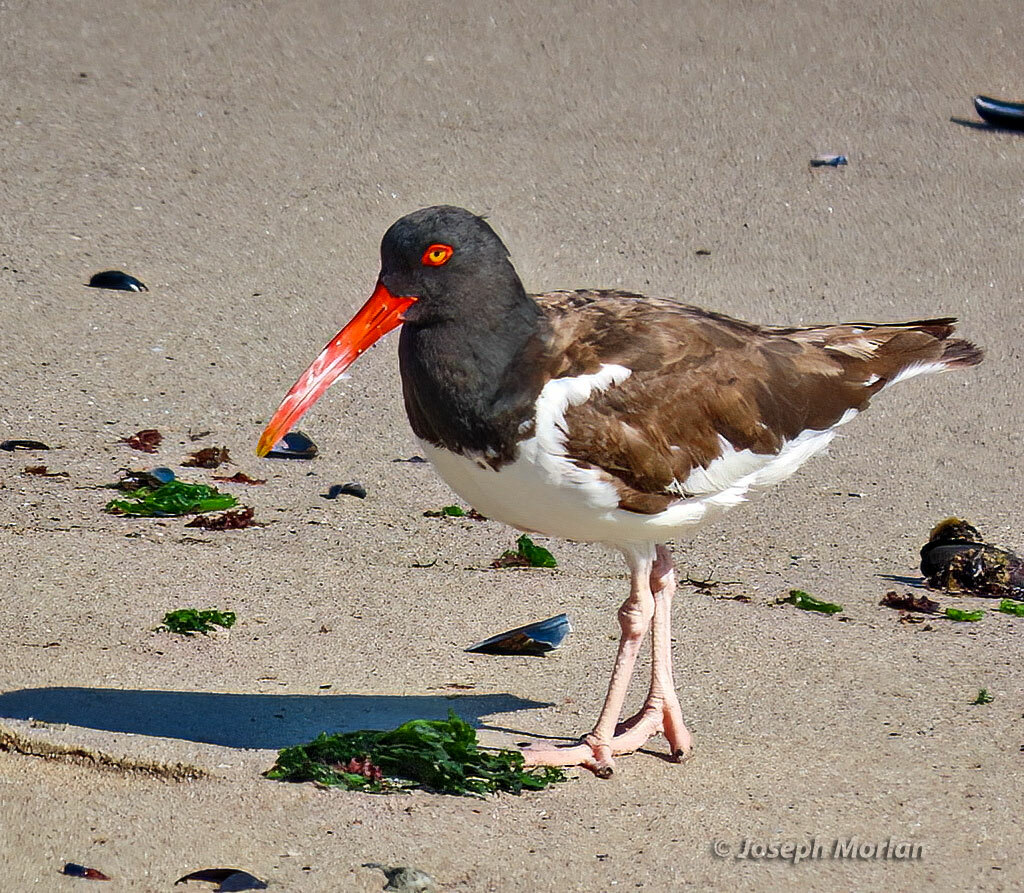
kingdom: Animalia
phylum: Chordata
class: Aves
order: Charadriiformes
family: Haematopodidae
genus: Haematopus
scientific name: Haematopus palliatus
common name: American oystercatcher
